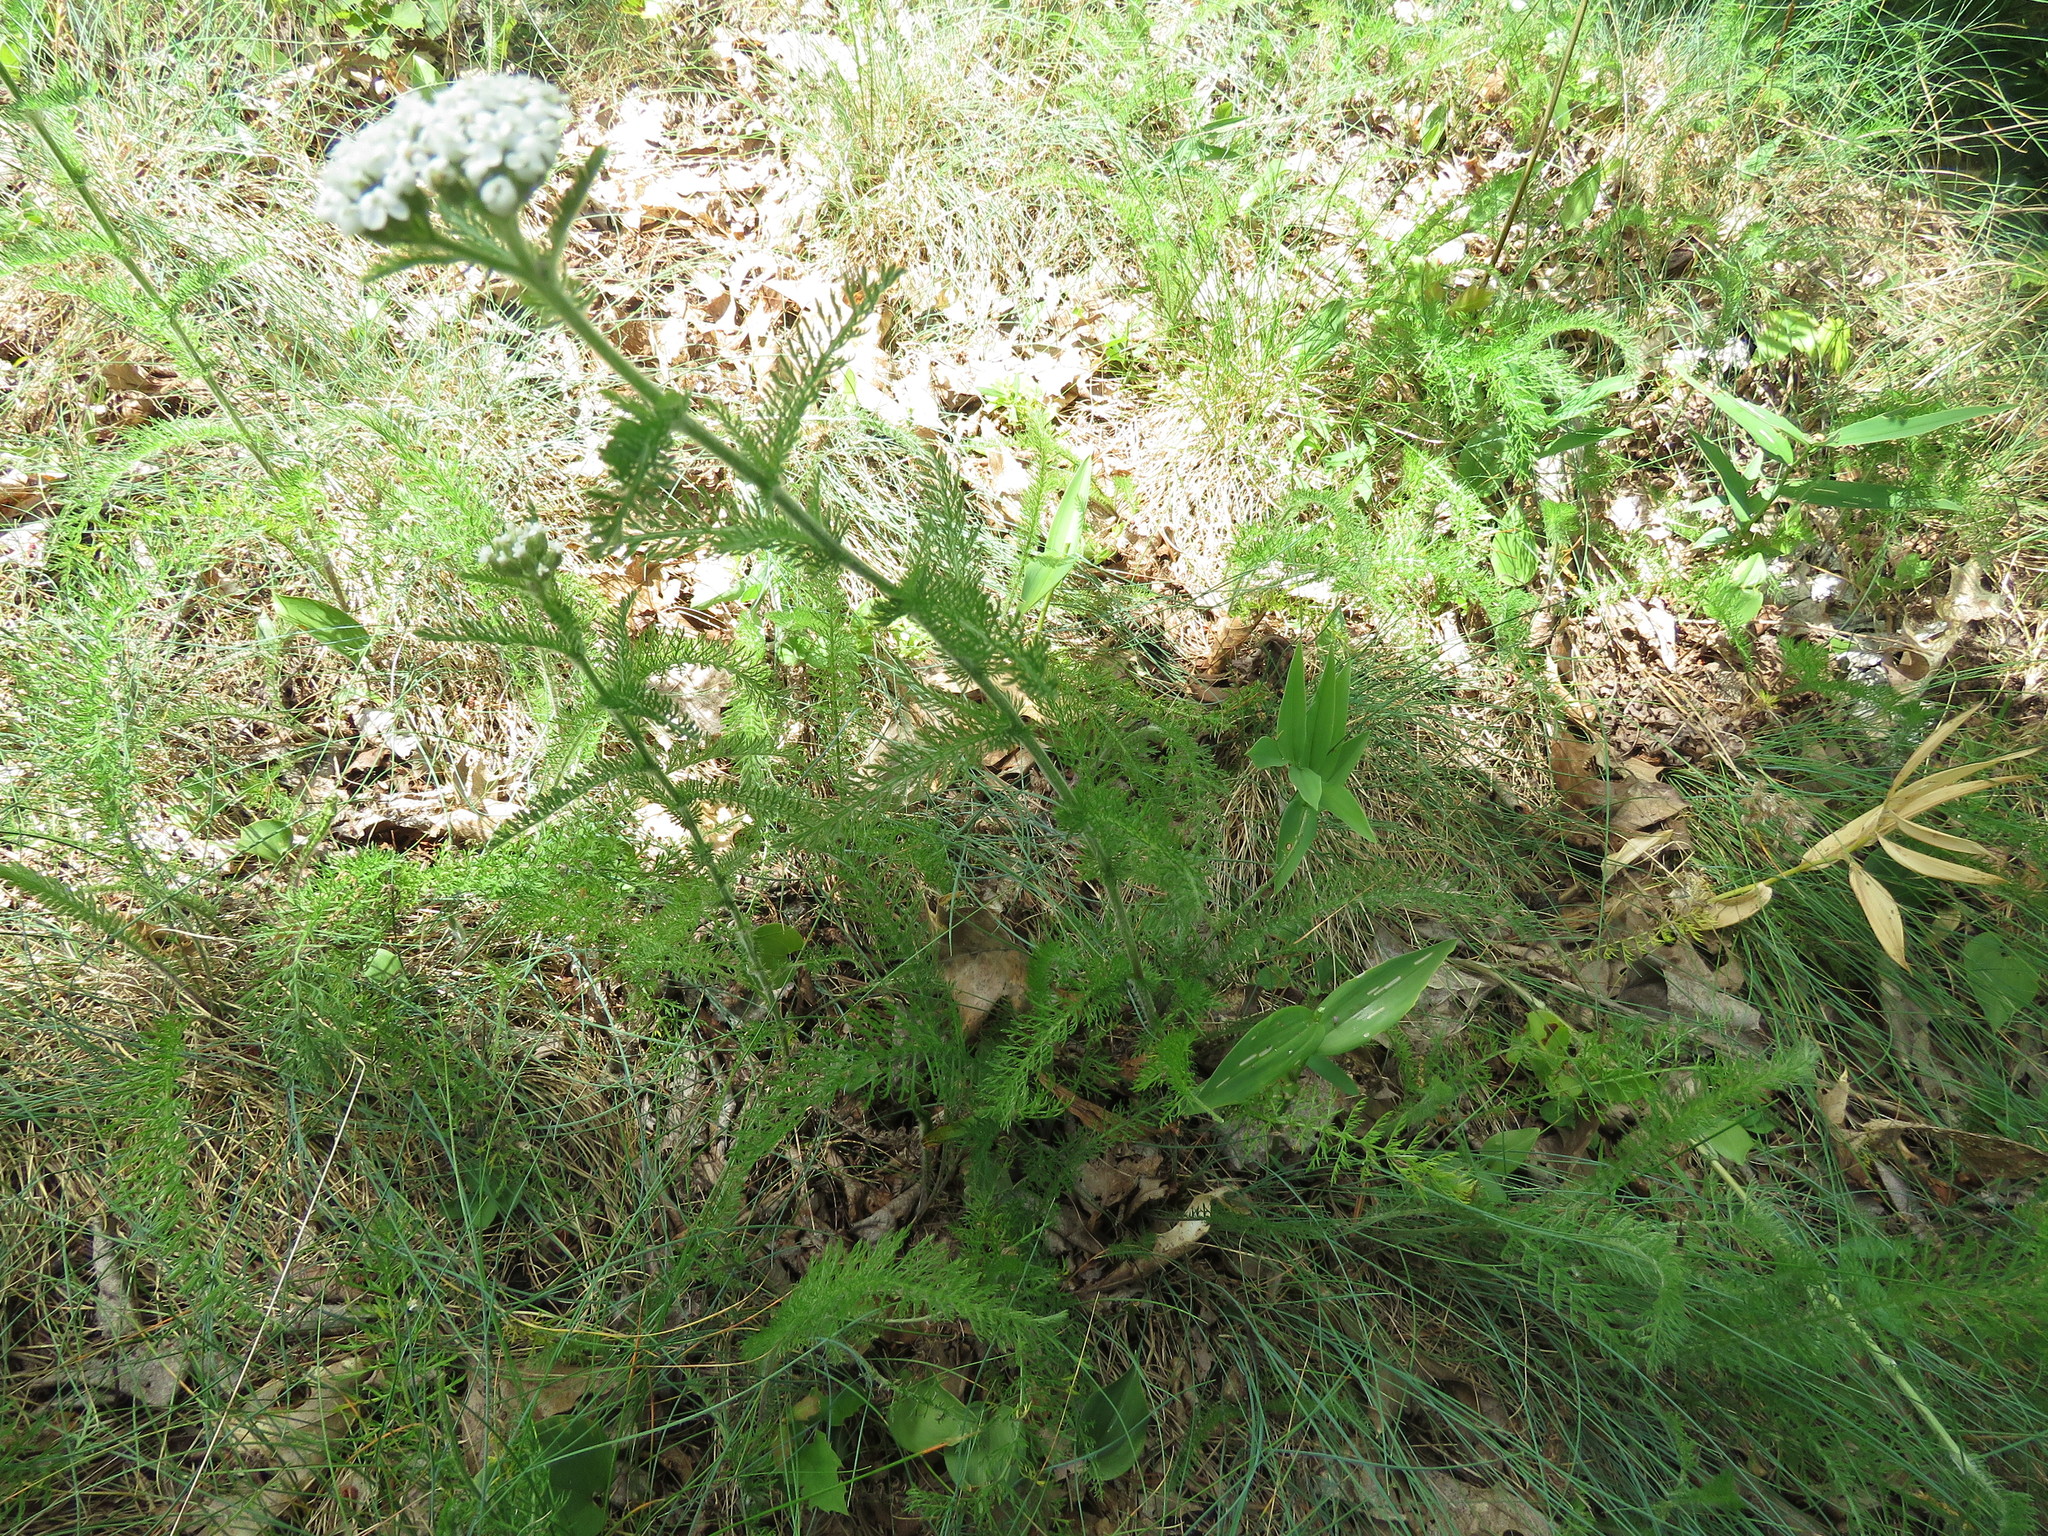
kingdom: Plantae
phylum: Tracheophyta
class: Magnoliopsida
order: Asterales
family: Asteraceae
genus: Achillea
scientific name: Achillea millefolium
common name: Yarrow
